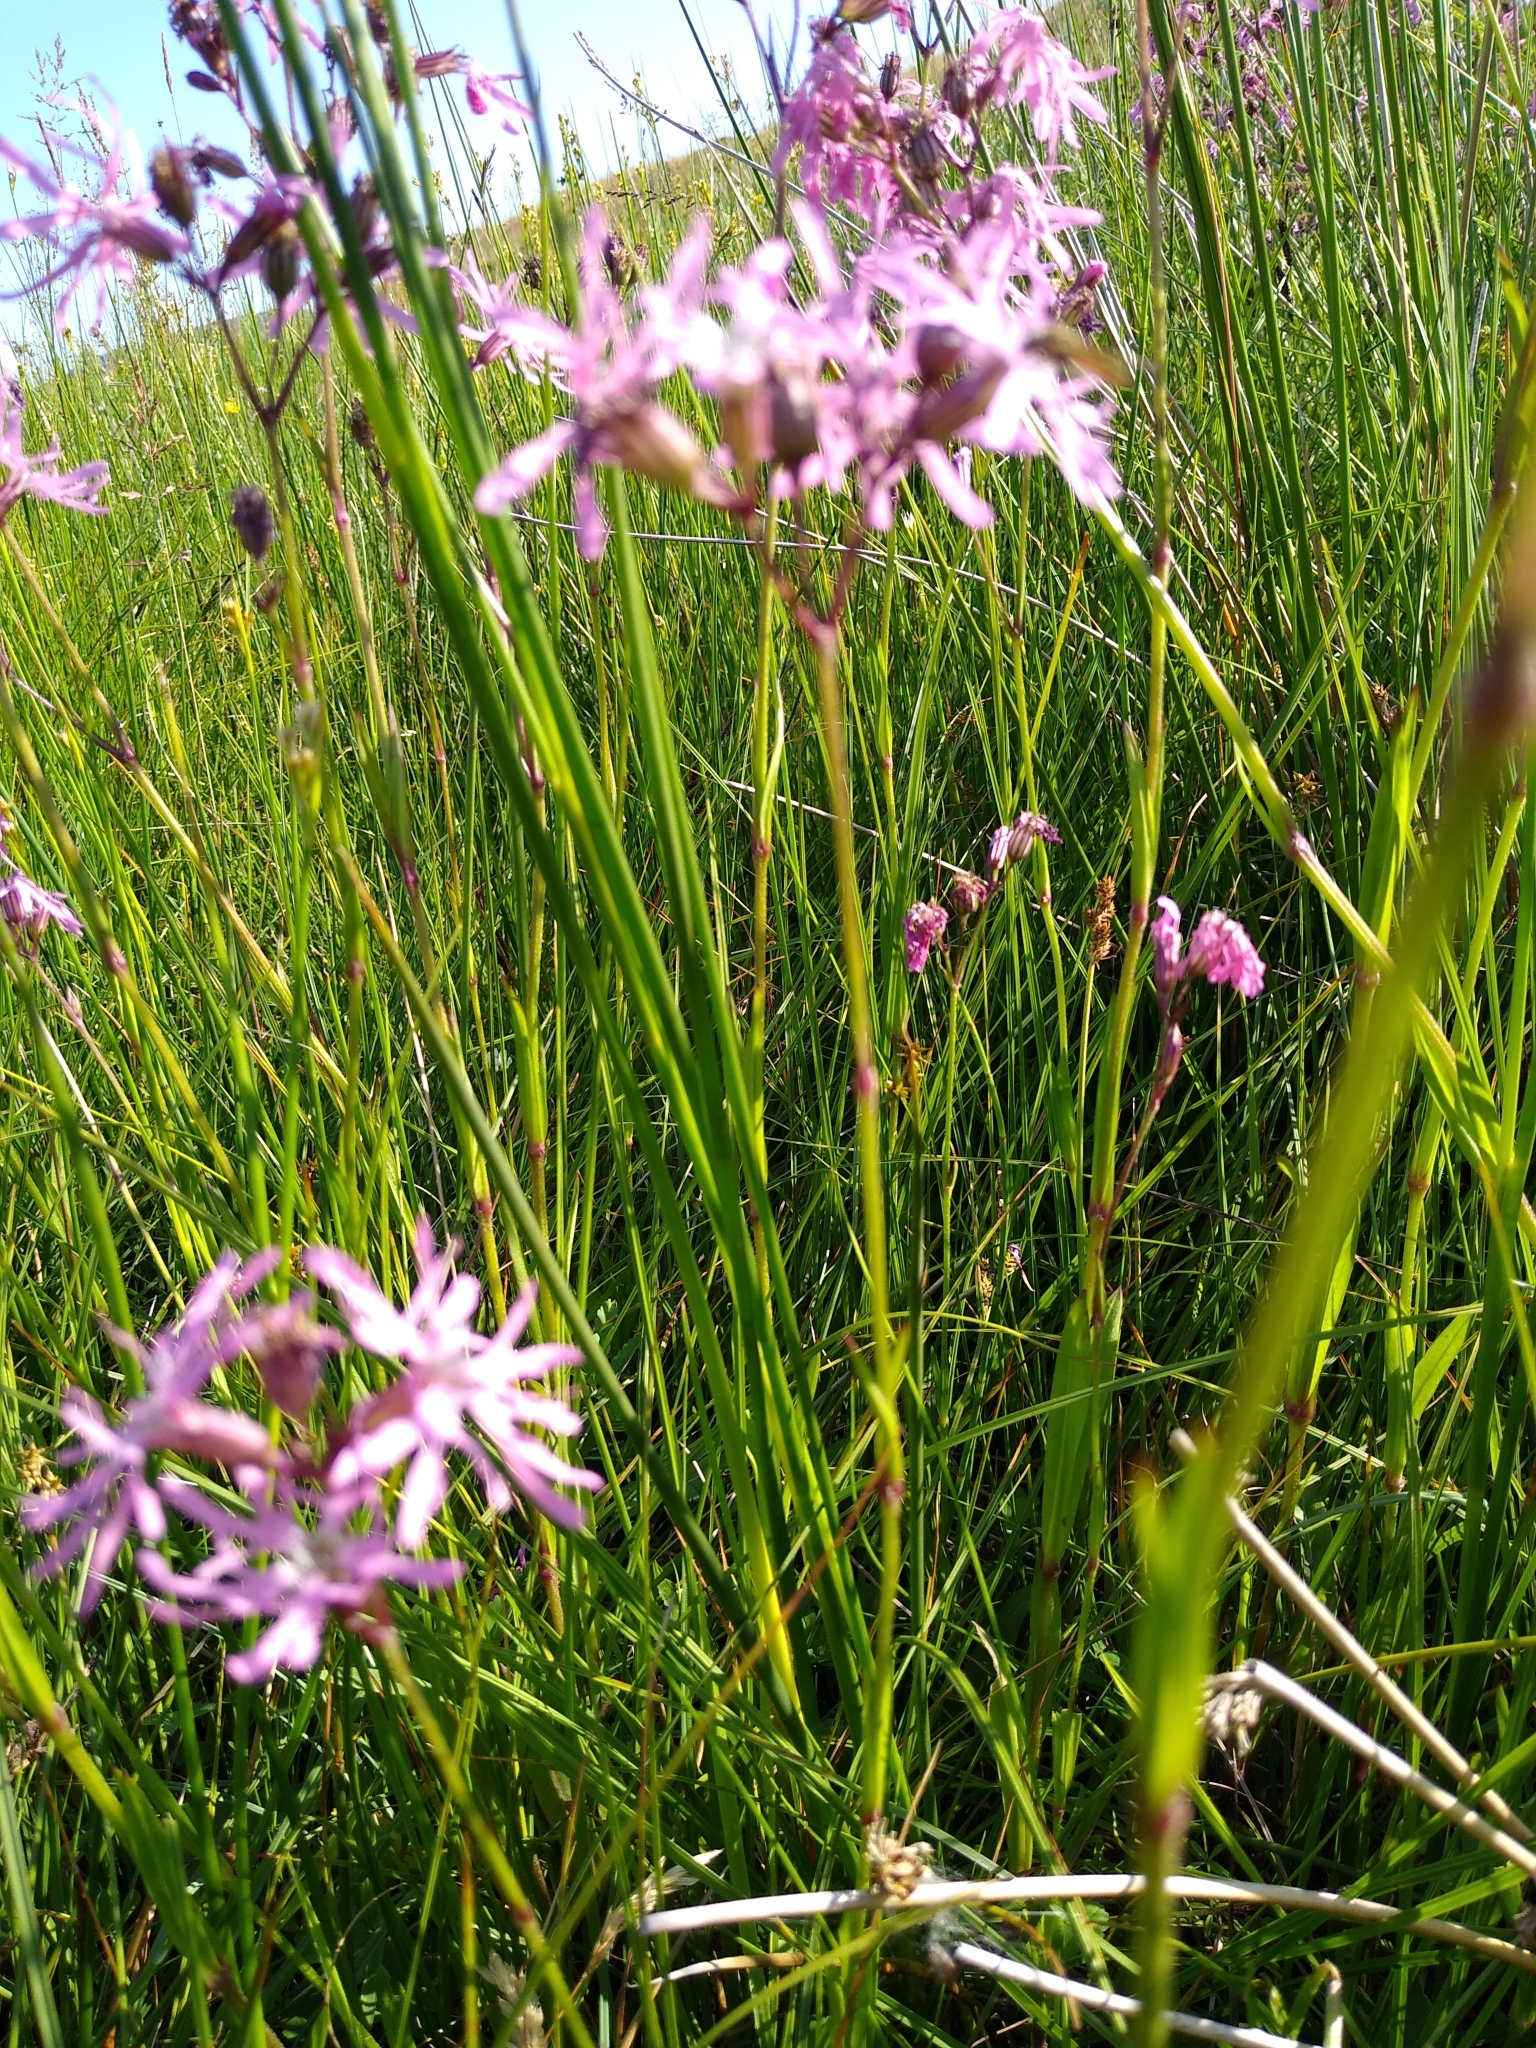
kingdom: Plantae
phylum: Tracheophyta
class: Magnoliopsida
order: Caryophyllales
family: Caryophyllaceae
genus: Silene
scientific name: Silene flos-cuculi
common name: Ragged-robin
